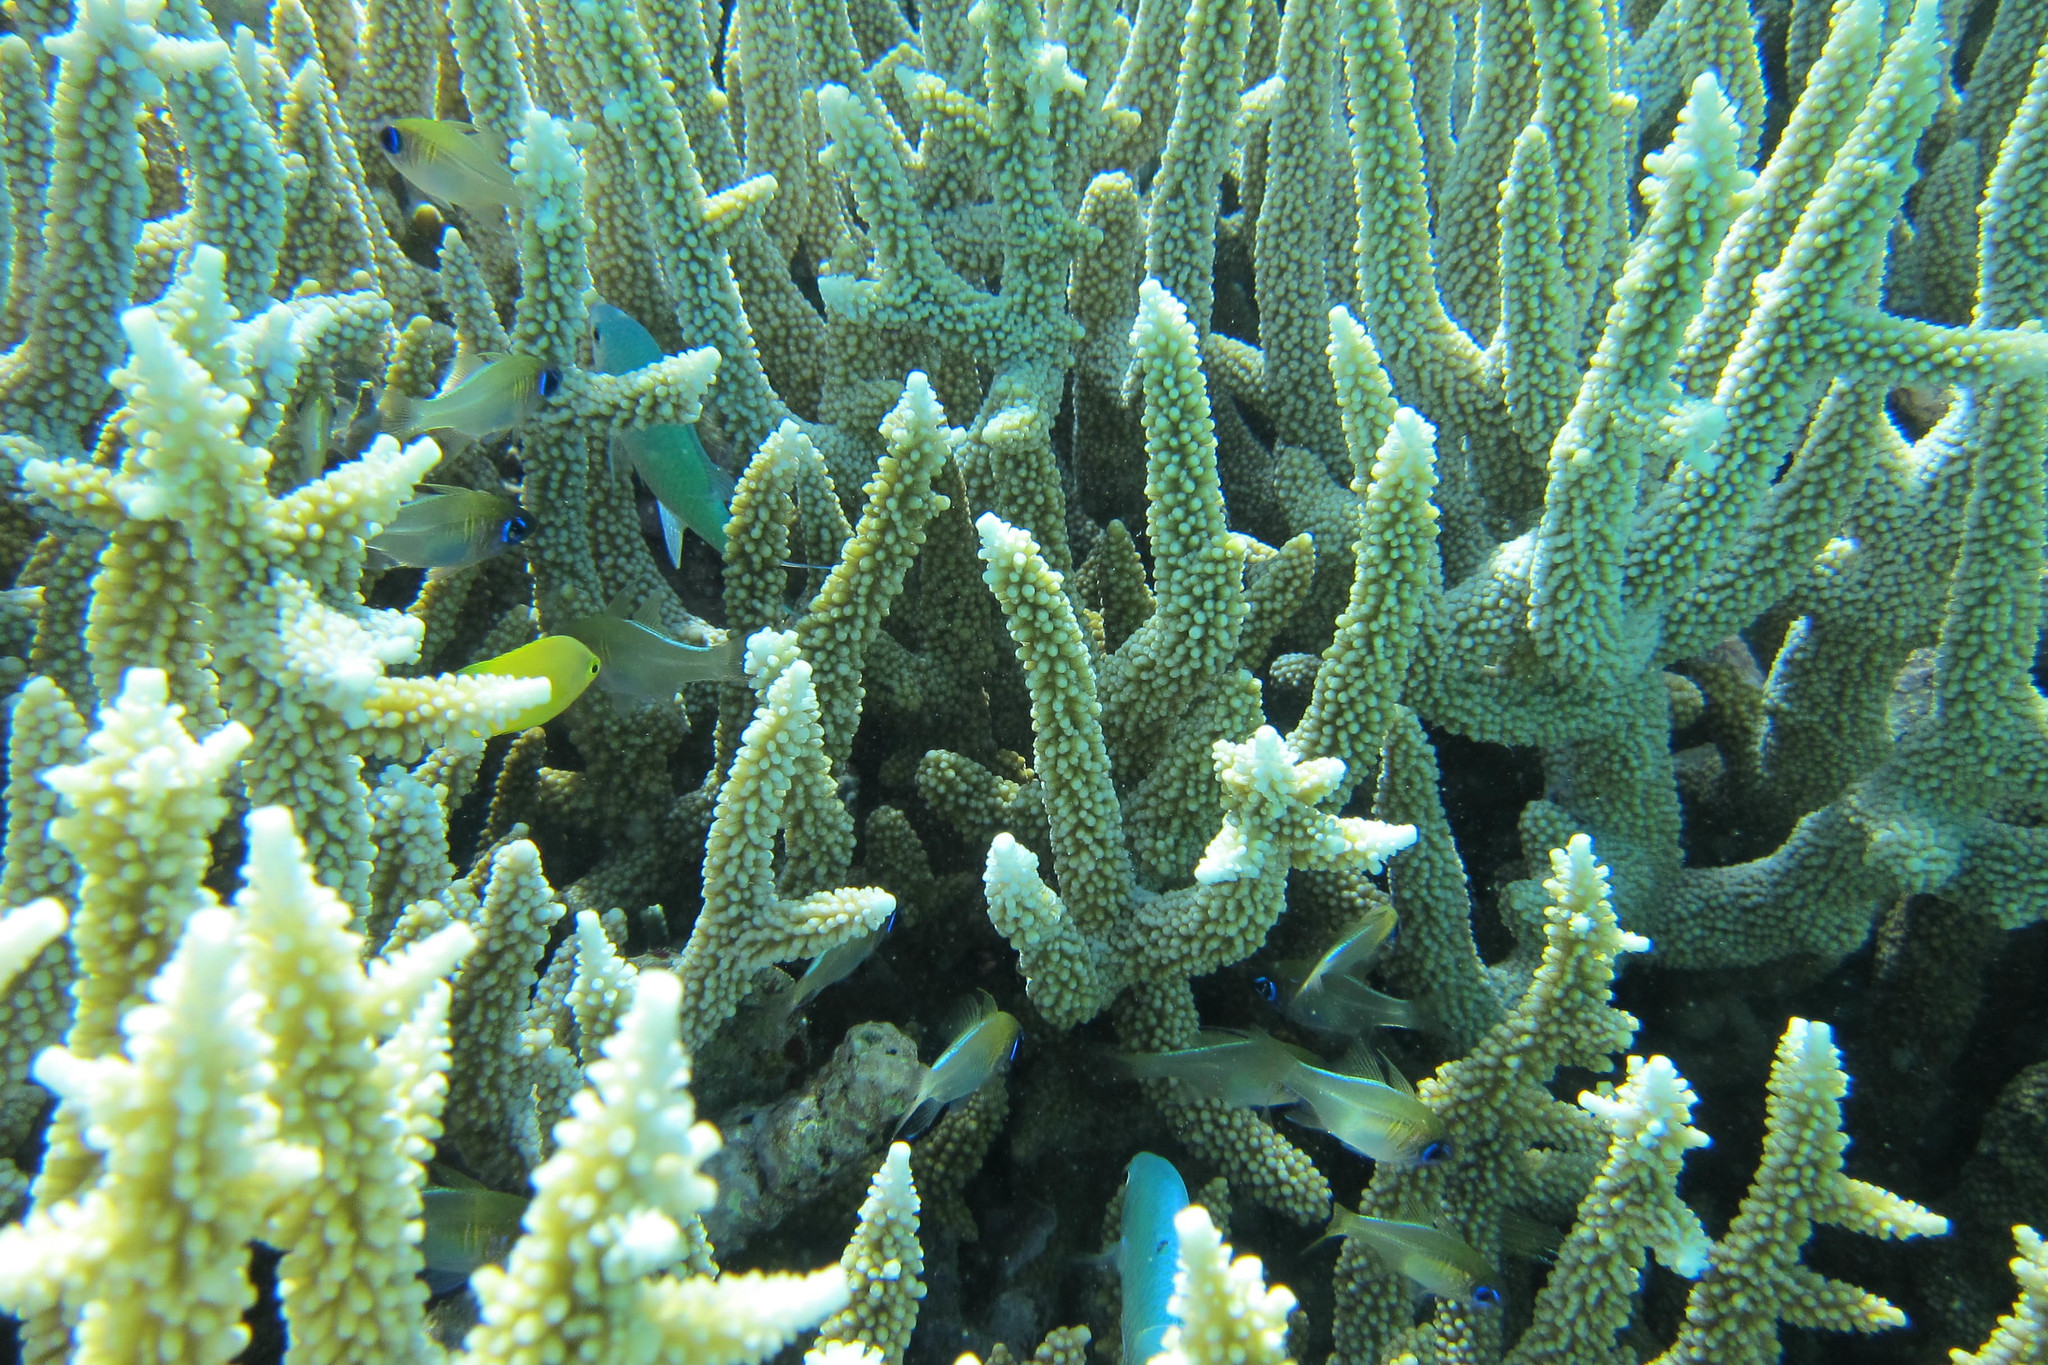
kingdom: Animalia
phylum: Chordata
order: Perciformes
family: Apogonidae
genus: Zoramia
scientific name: Zoramia leptacantha
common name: Threadfin cardinalfish
